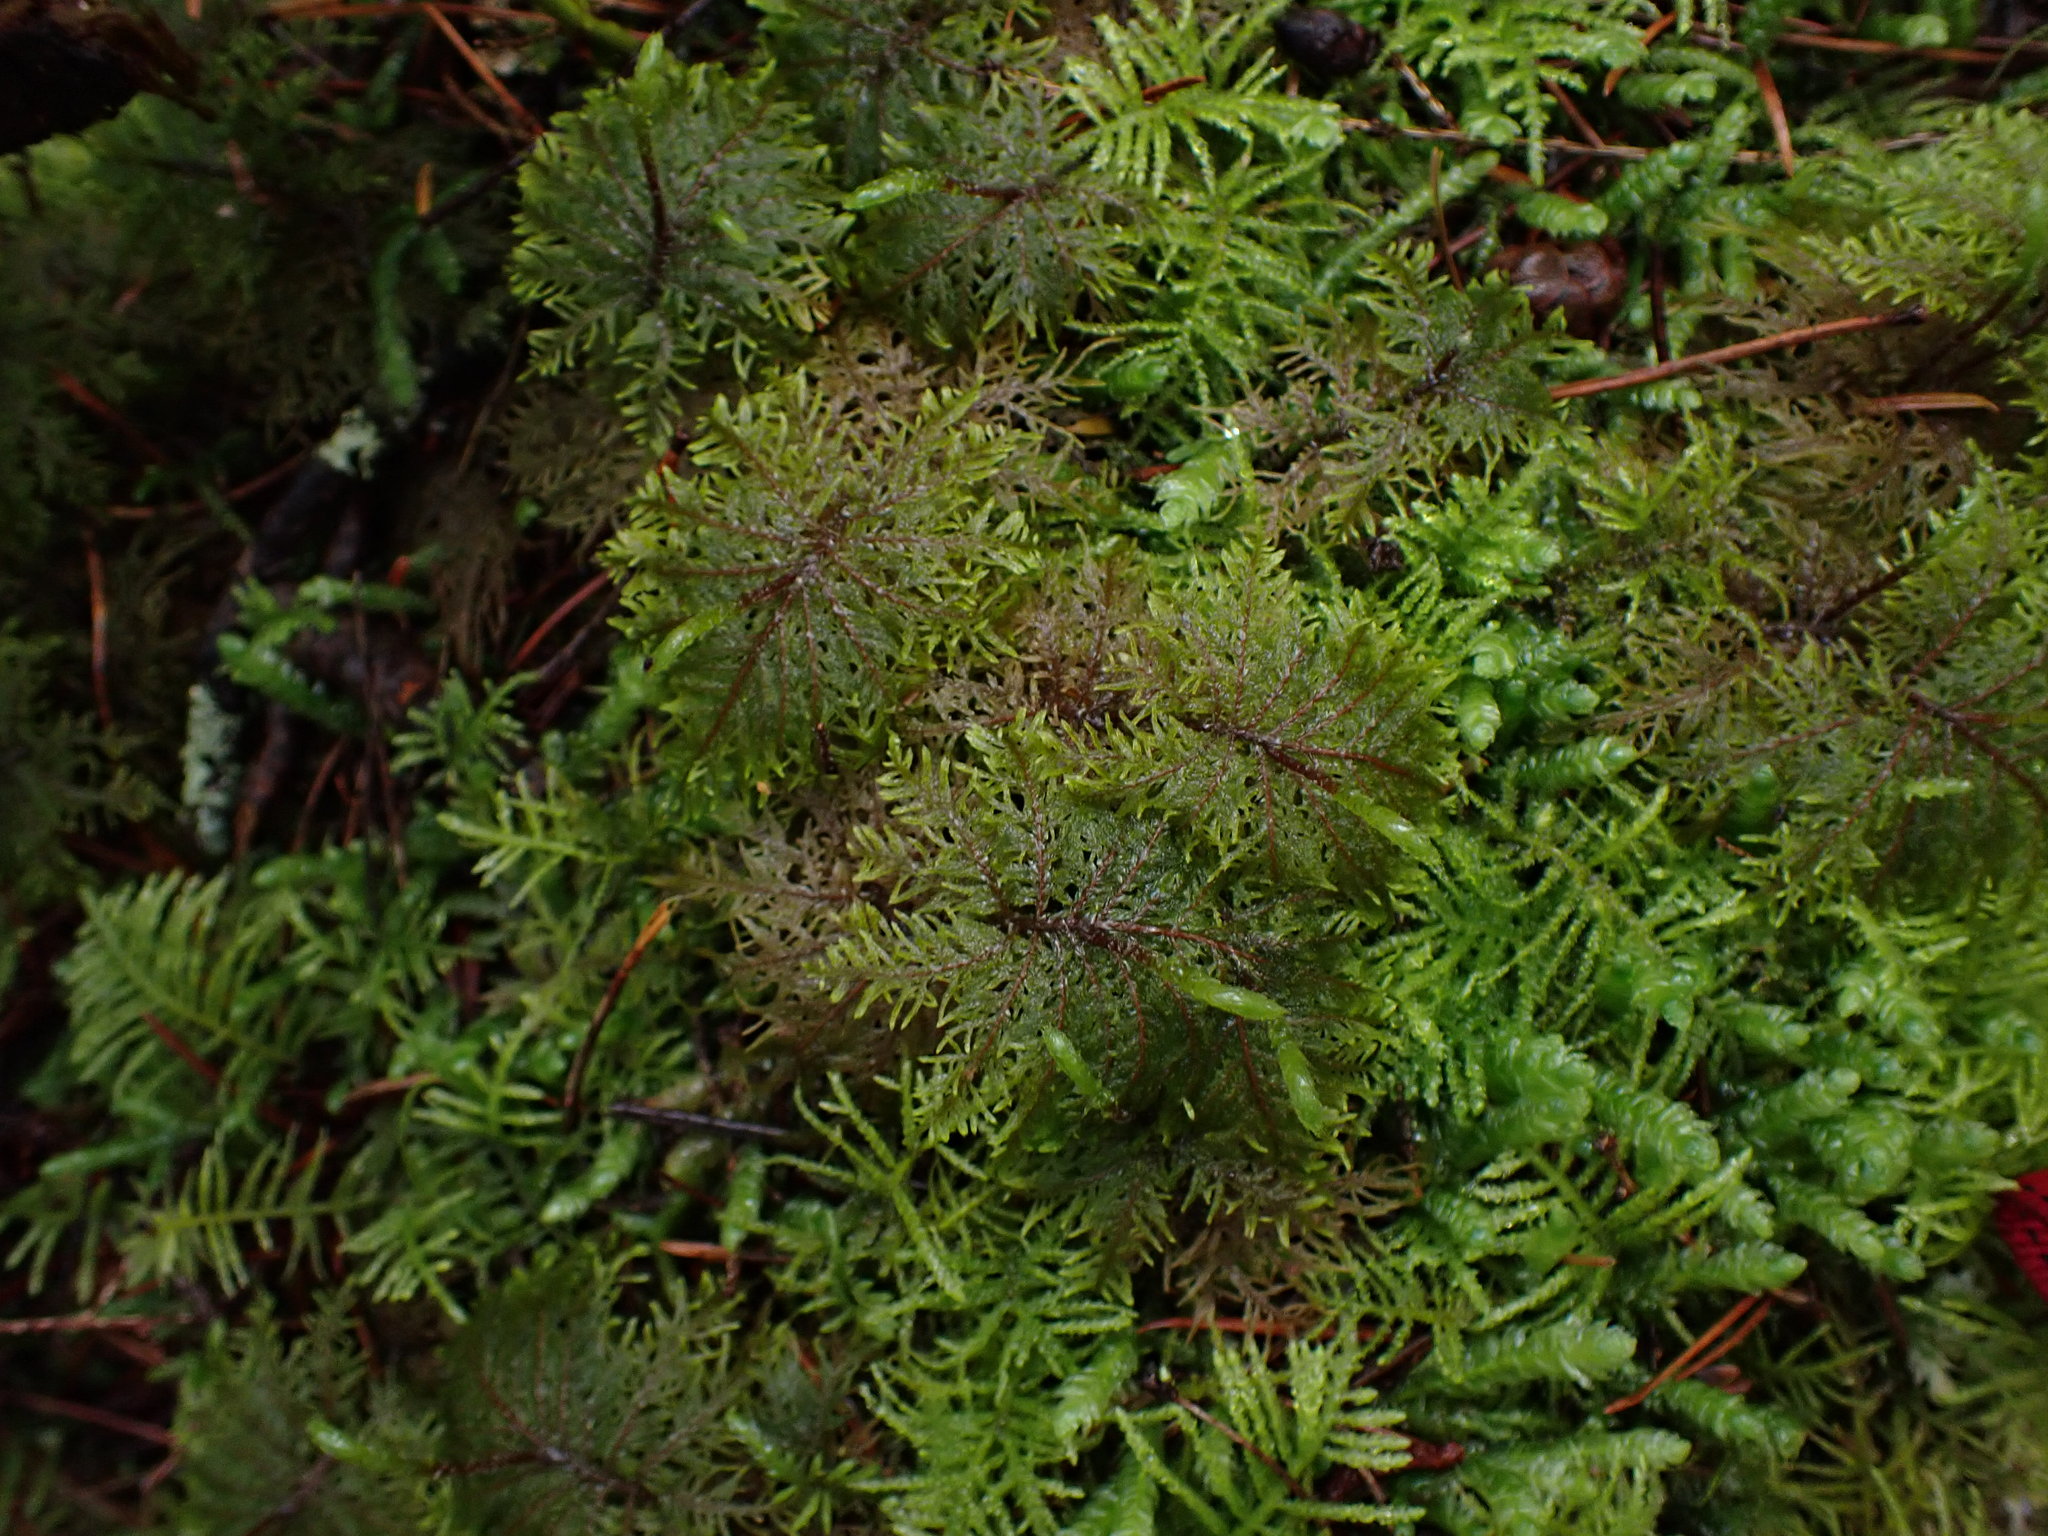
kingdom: Plantae
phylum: Bryophyta
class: Bryopsida
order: Hypnales
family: Hylocomiaceae
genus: Hylocomium
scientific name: Hylocomium splendens
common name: Stairstep moss
